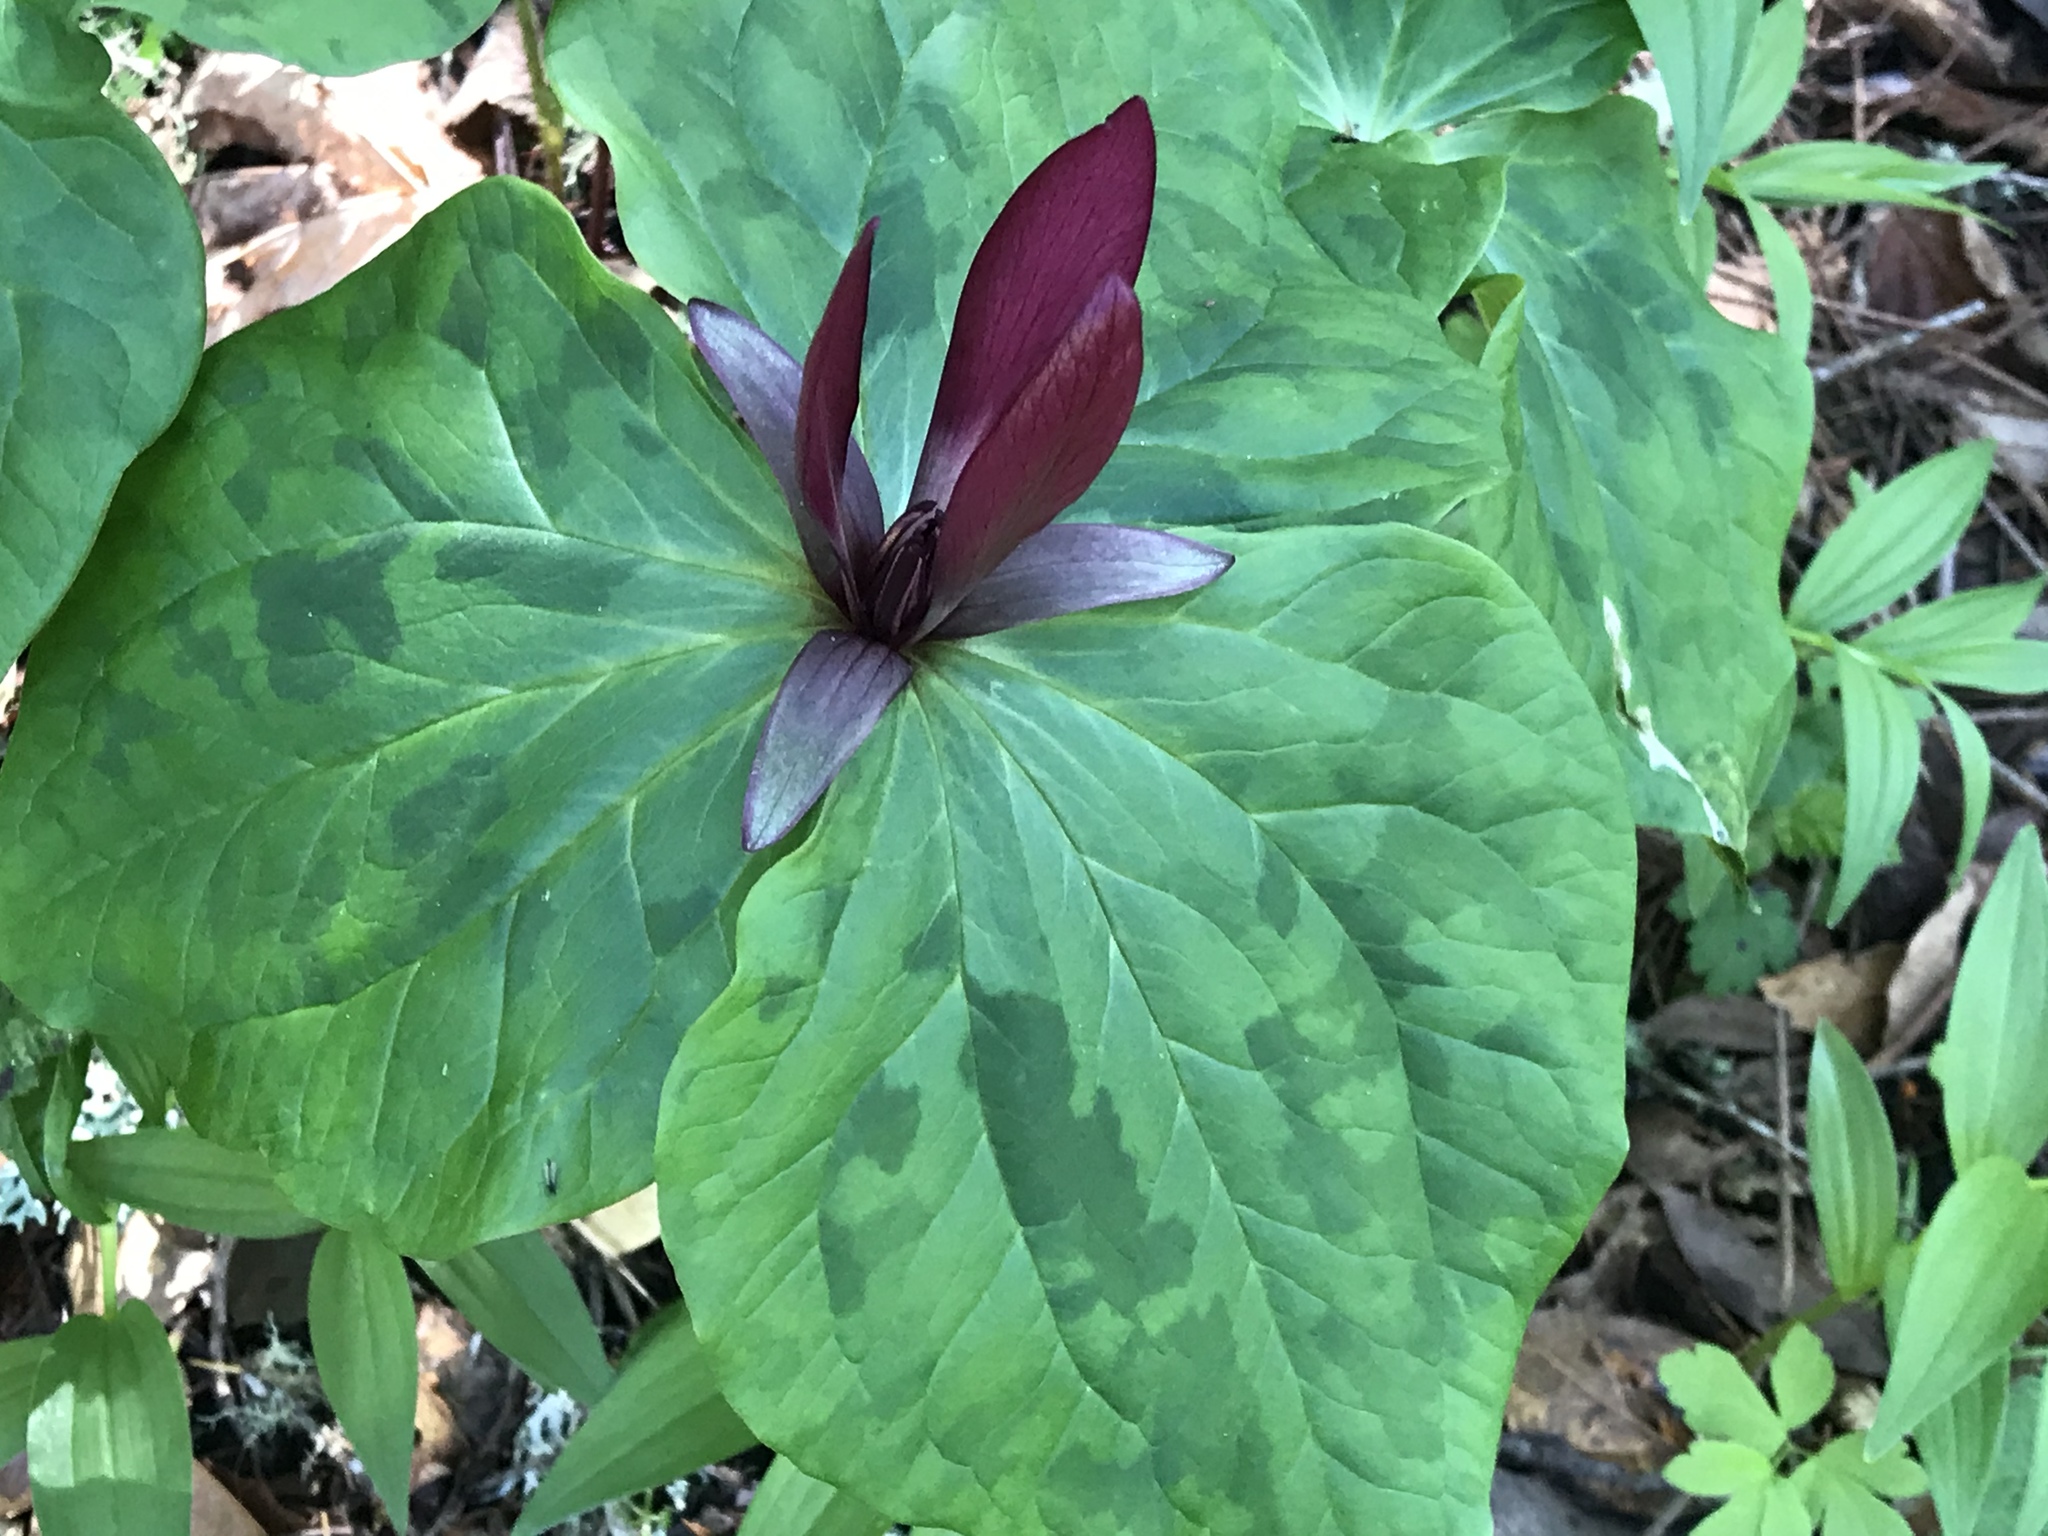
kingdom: Plantae
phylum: Tracheophyta
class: Liliopsida
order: Liliales
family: Melanthiaceae
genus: Trillium
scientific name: Trillium chloropetalum
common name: Giant trillium
